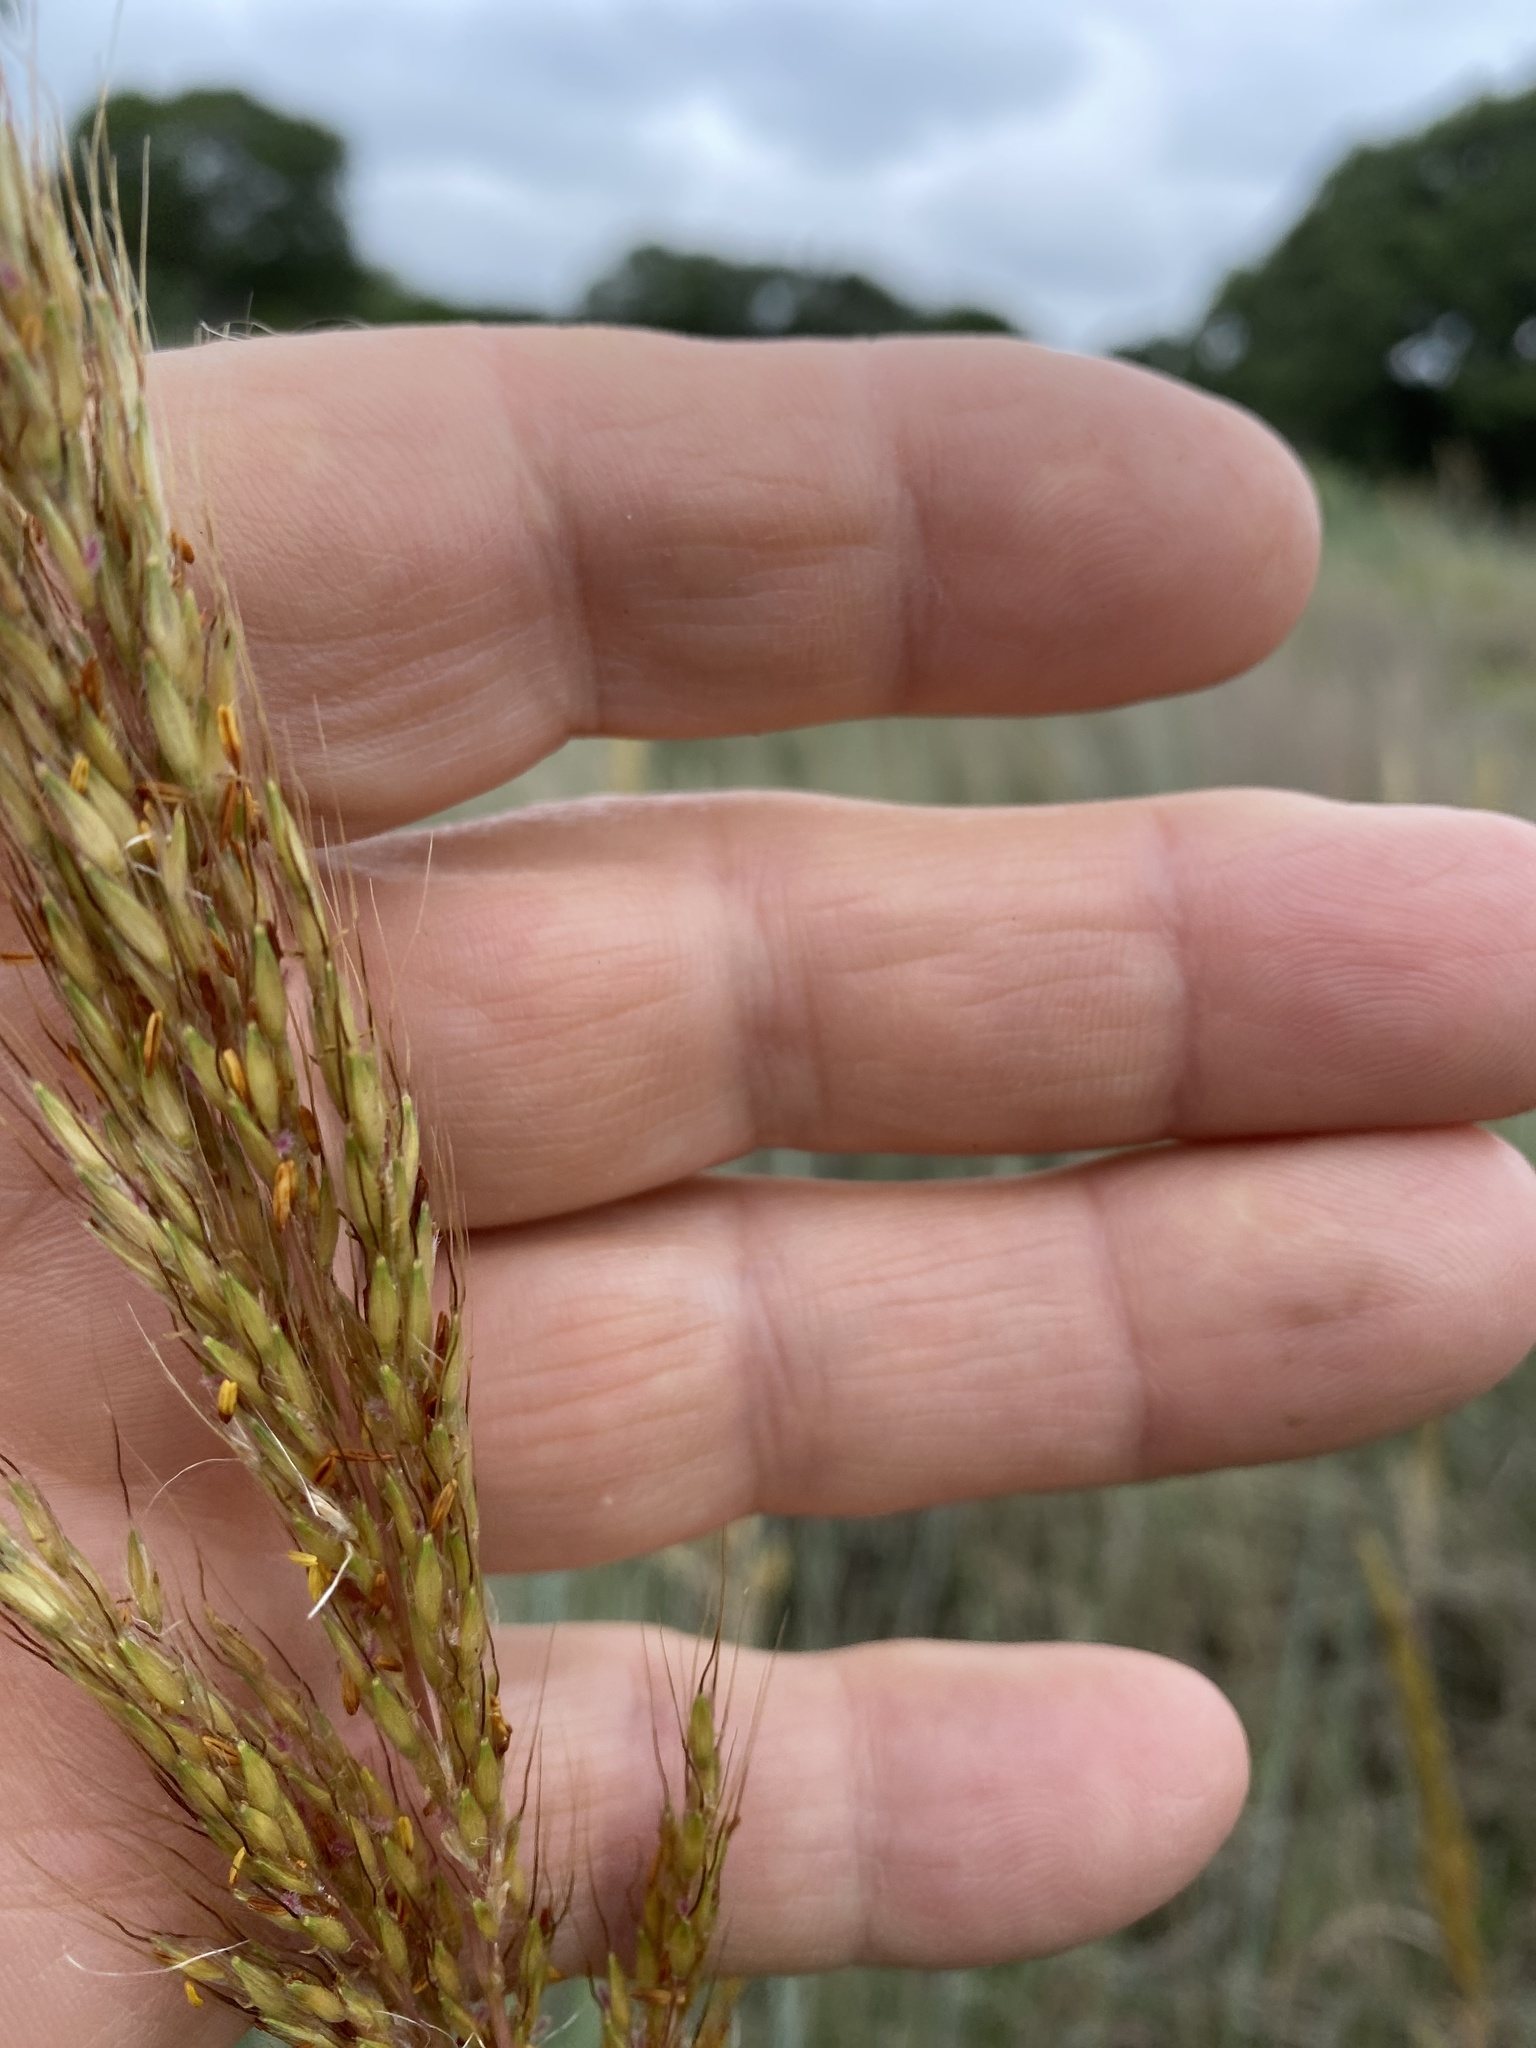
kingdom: Plantae
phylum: Tracheophyta
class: Liliopsida
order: Poales
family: Poaceae
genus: Sorghastrum
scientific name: Sorghastrum nutans
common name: Indian grass
